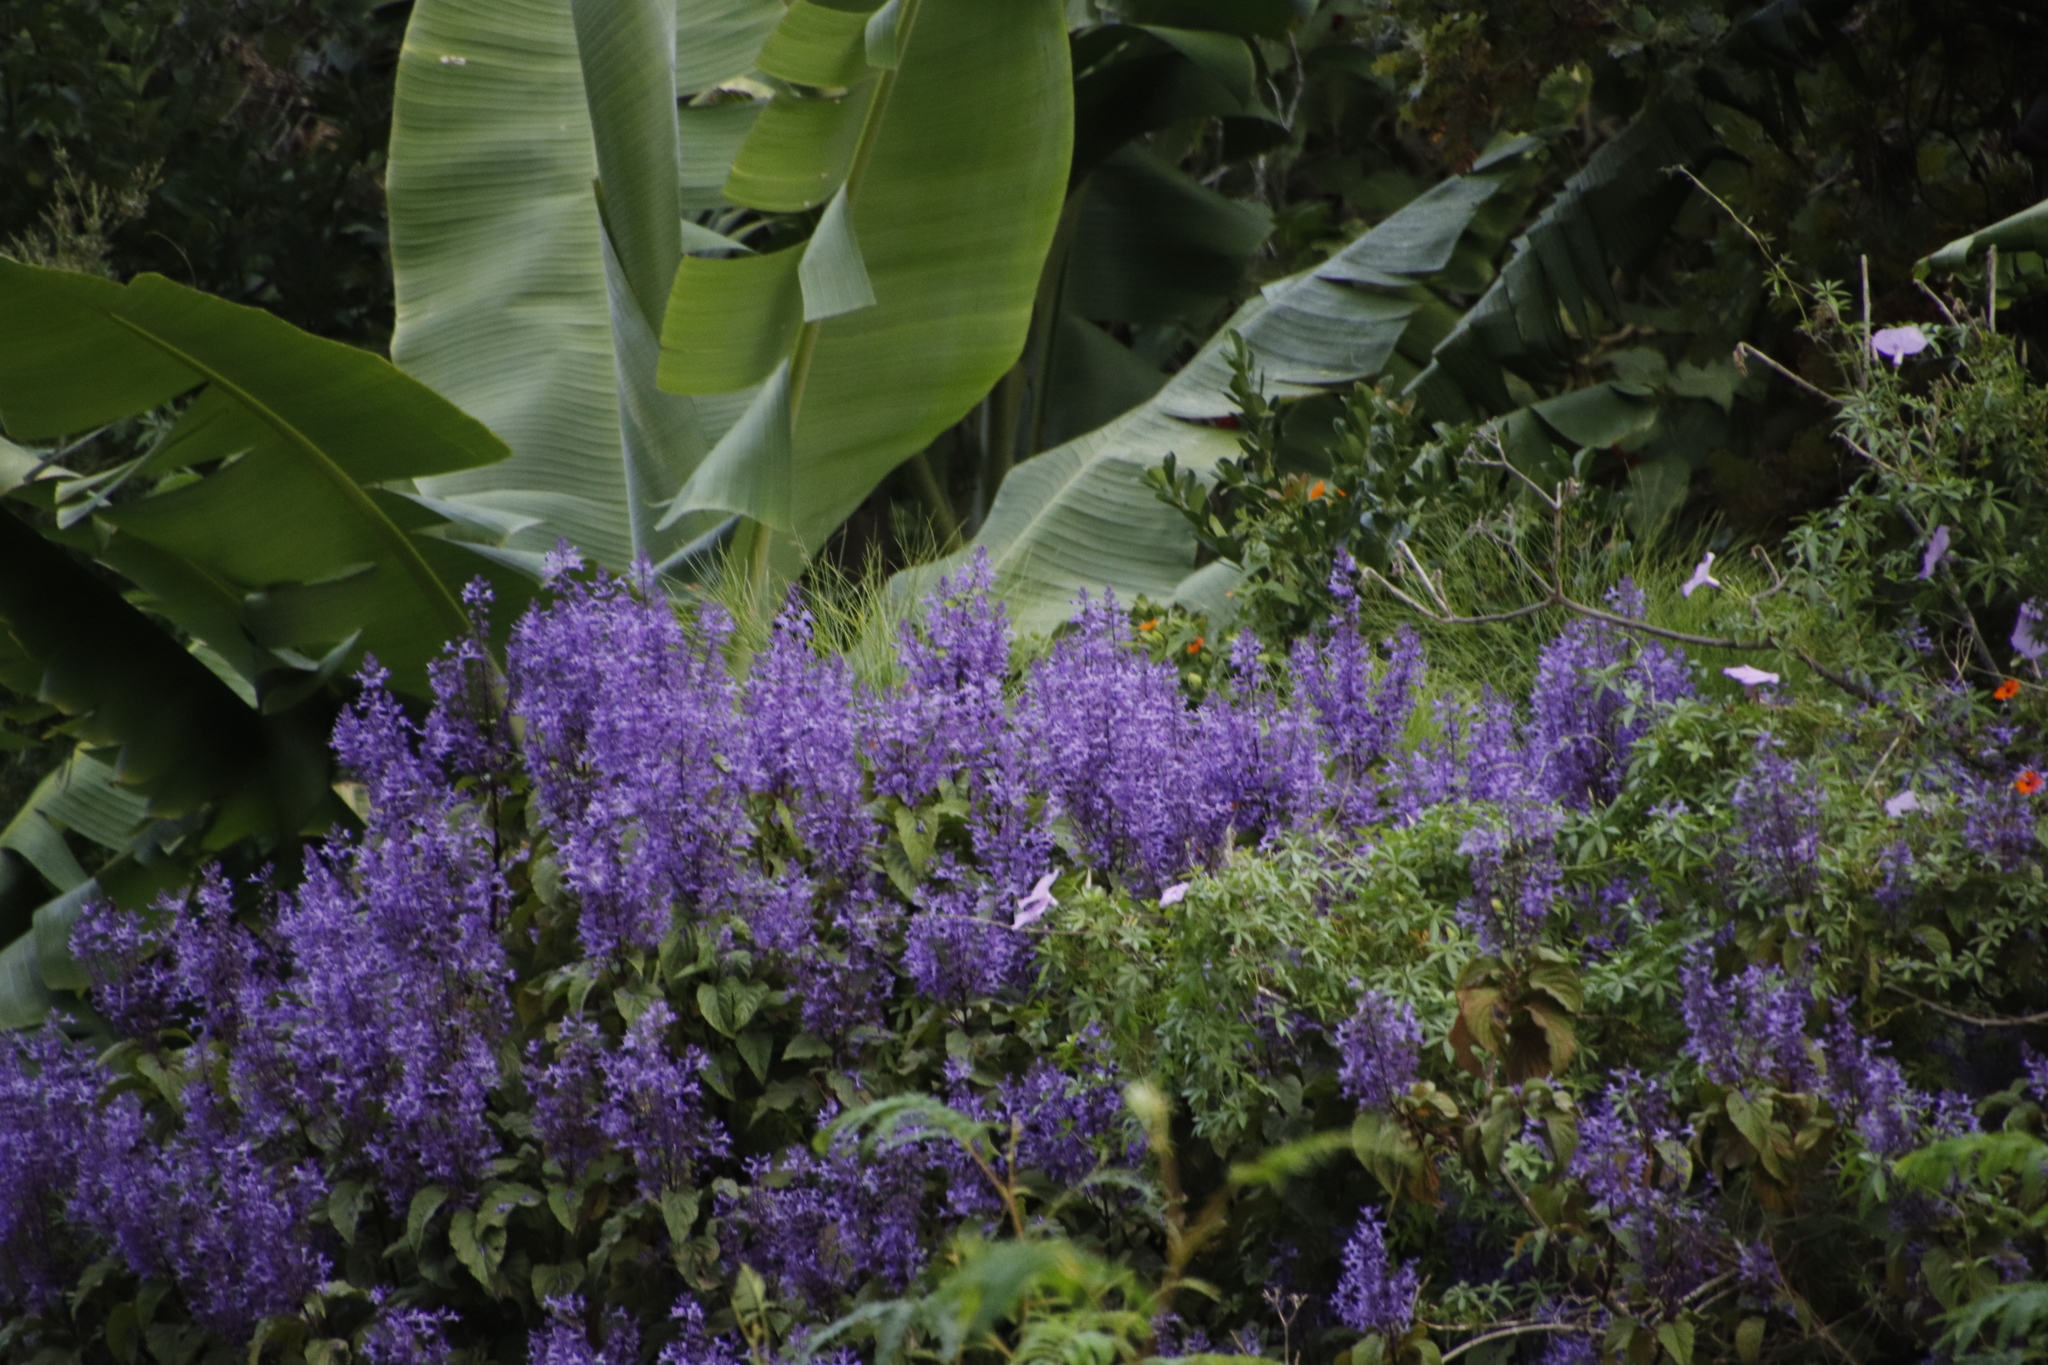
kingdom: Plantae
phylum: Tracheophyta
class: Magnoliopsida
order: Lamiales
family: Lamiaceae
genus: Plectranthus
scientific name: Plectranthus ecklonii
